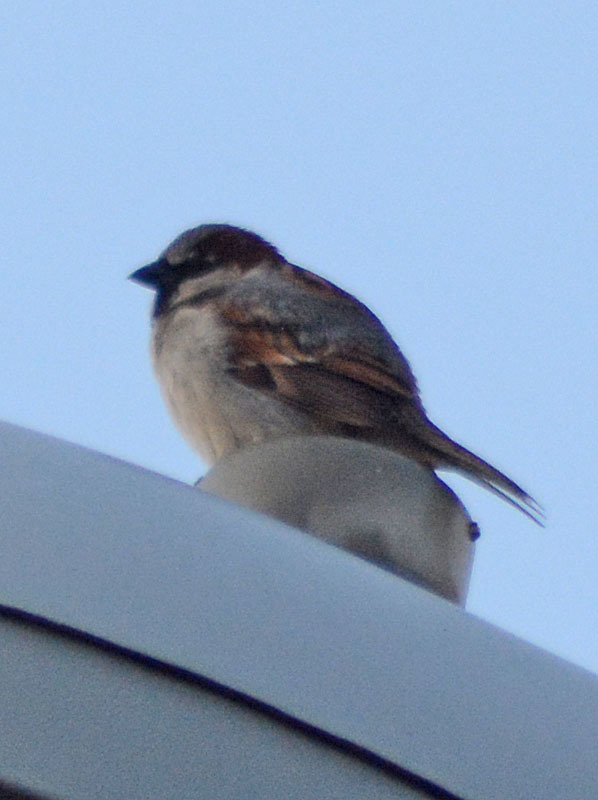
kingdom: Animalia
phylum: Chordata
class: Aves
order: Passeriformes
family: Passeridae
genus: Passer
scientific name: Passer domesticus
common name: House sparrow
